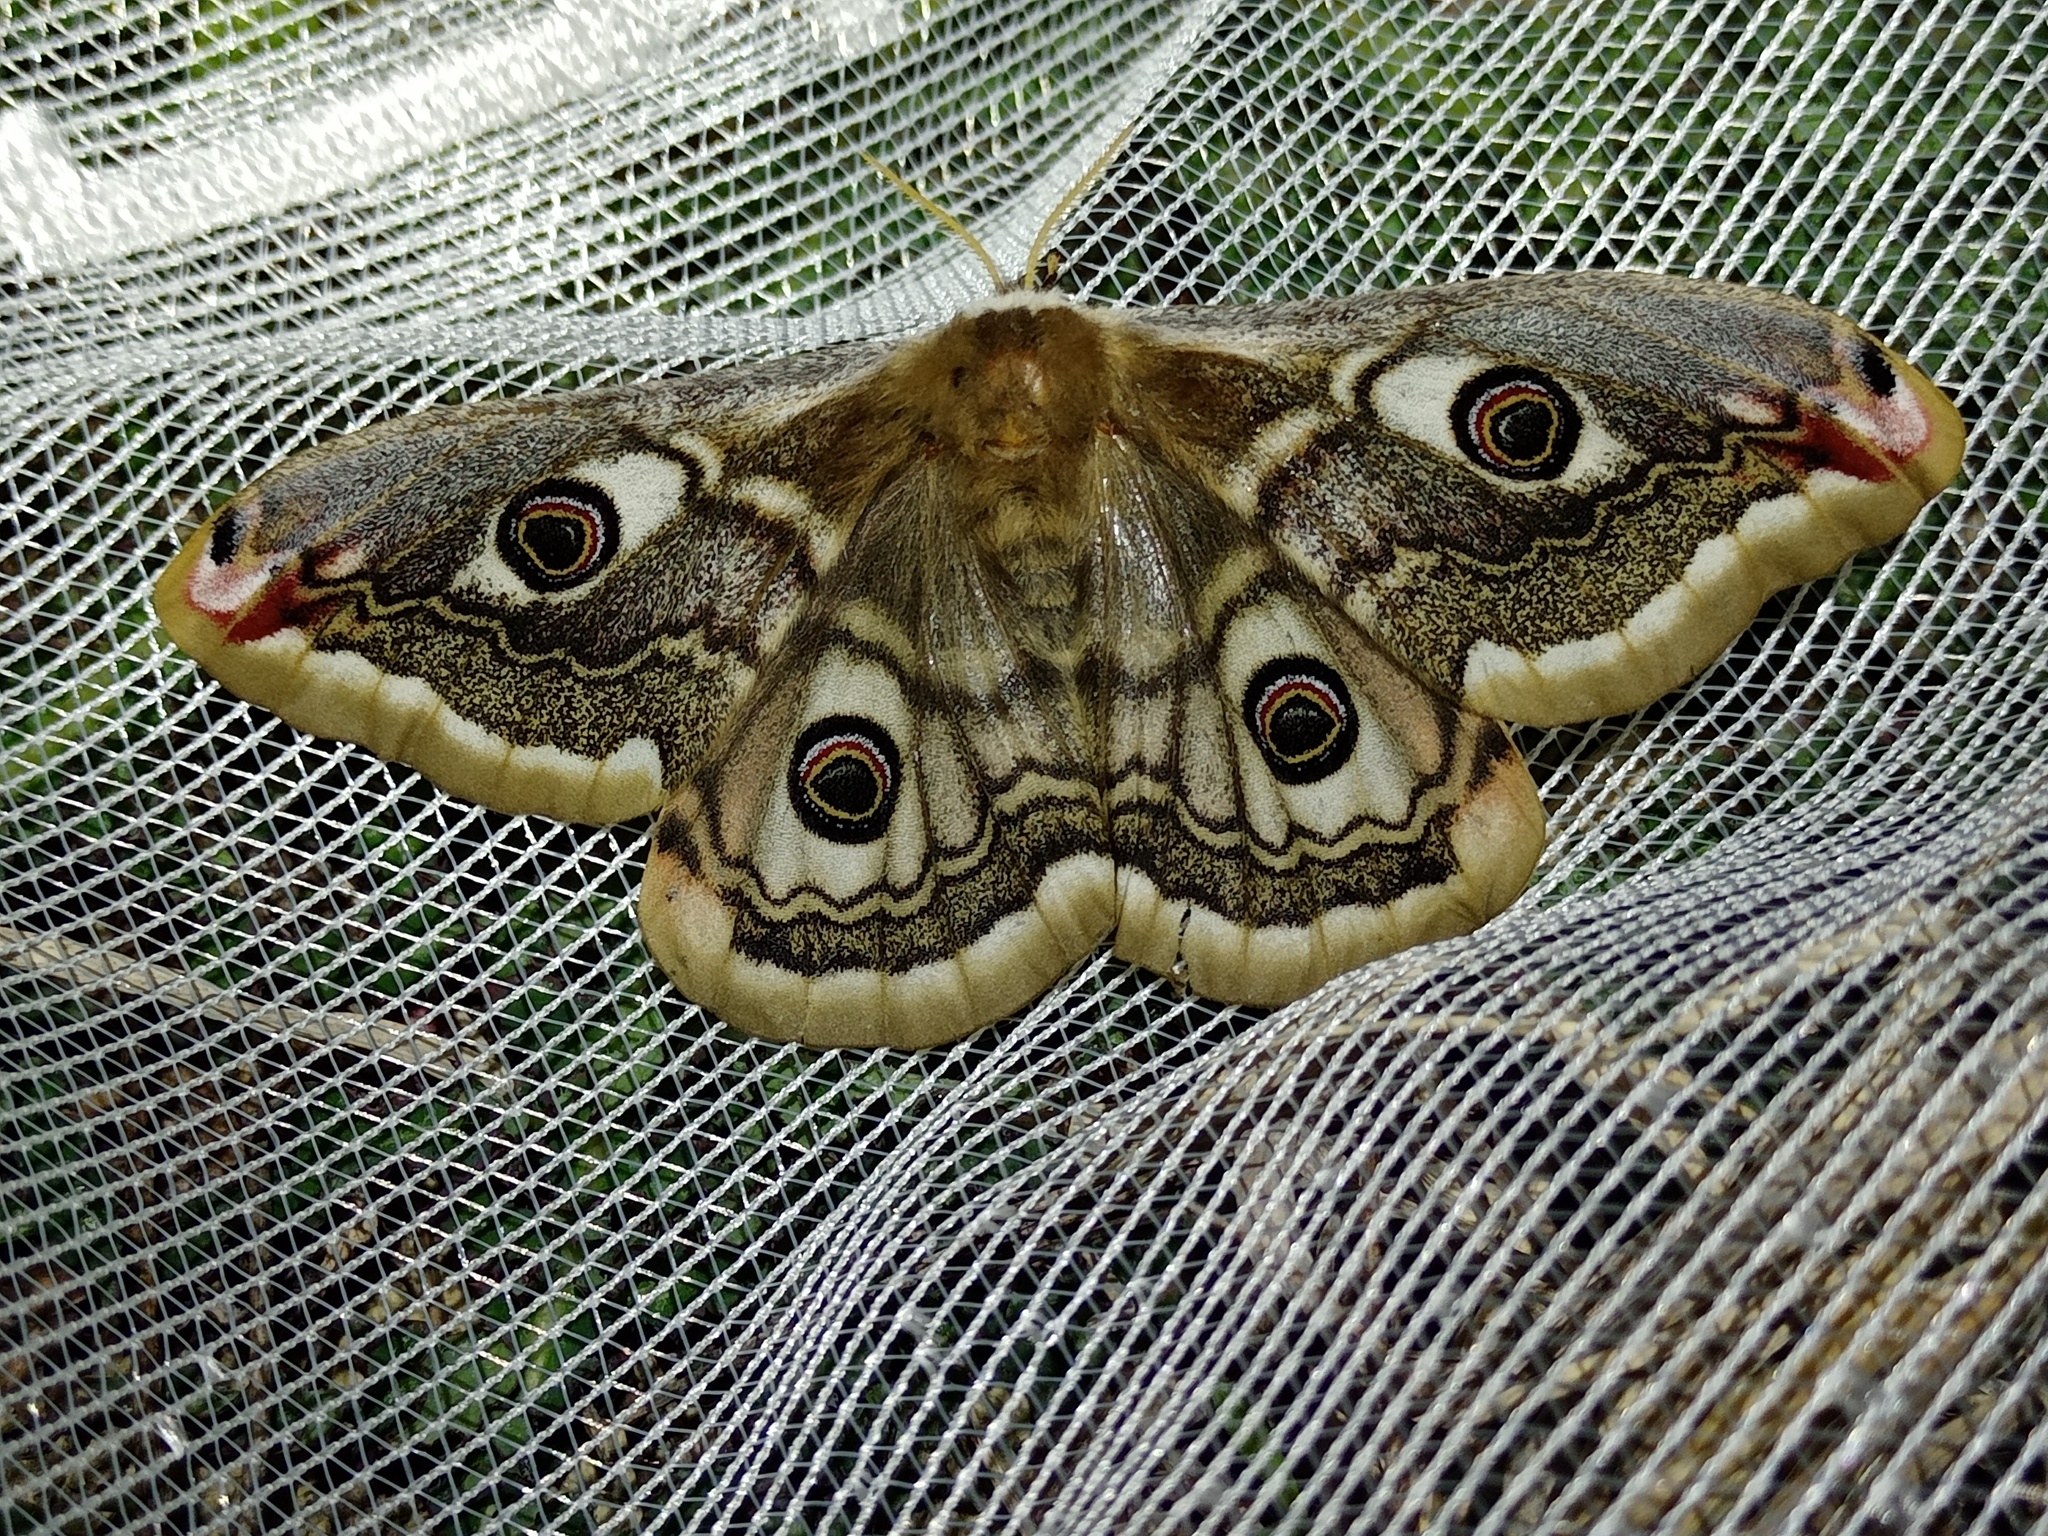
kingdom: Animalia
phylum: Arthropoda
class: Insecta
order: Lepidoptera
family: Saturniidae
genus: Saturnia
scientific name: Saturnia pavoniella
